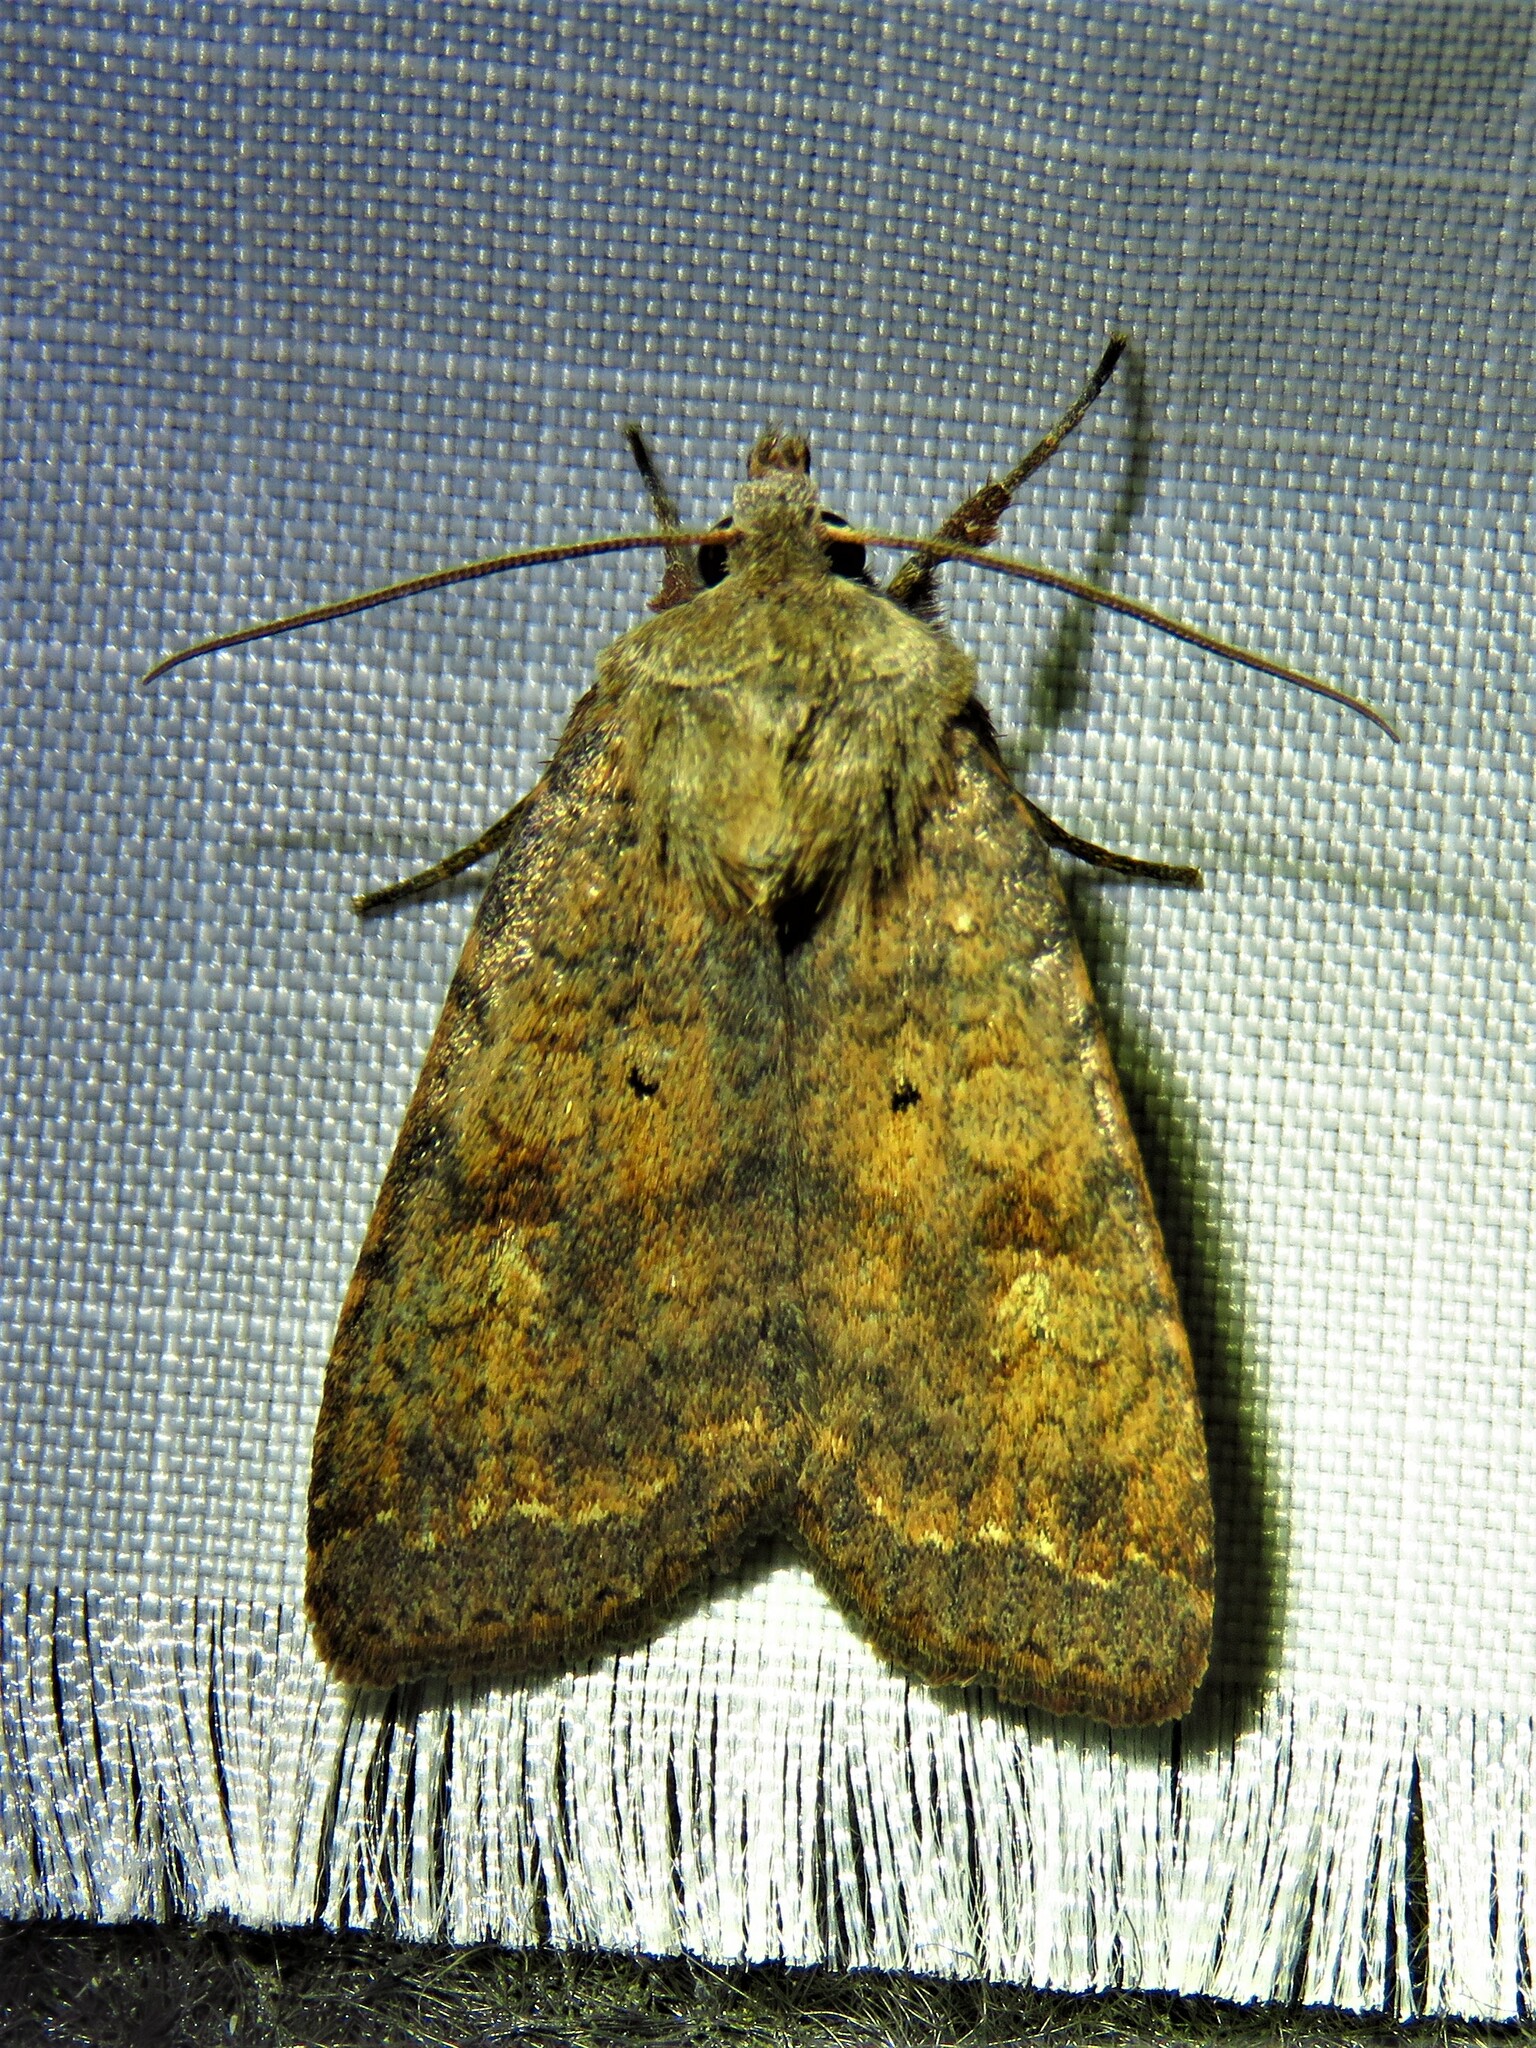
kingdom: Animalia
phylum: Arthropoda
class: Insecta
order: Lepidoptera
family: Noctuidae
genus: Diarsia
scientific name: Diarsia dahlii
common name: Barred chestnut
